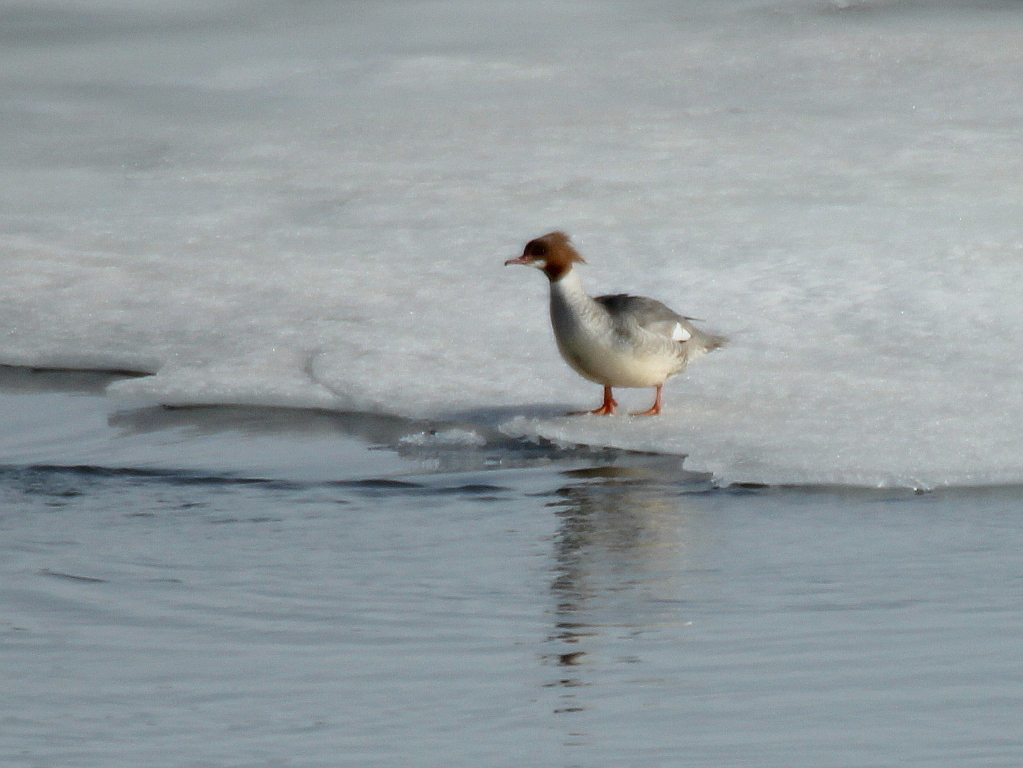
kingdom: Animalia
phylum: Chordata
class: Aves
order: Anseriformes
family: Anatidae
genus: Mergus
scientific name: Mergus merganser
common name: Common merganser
